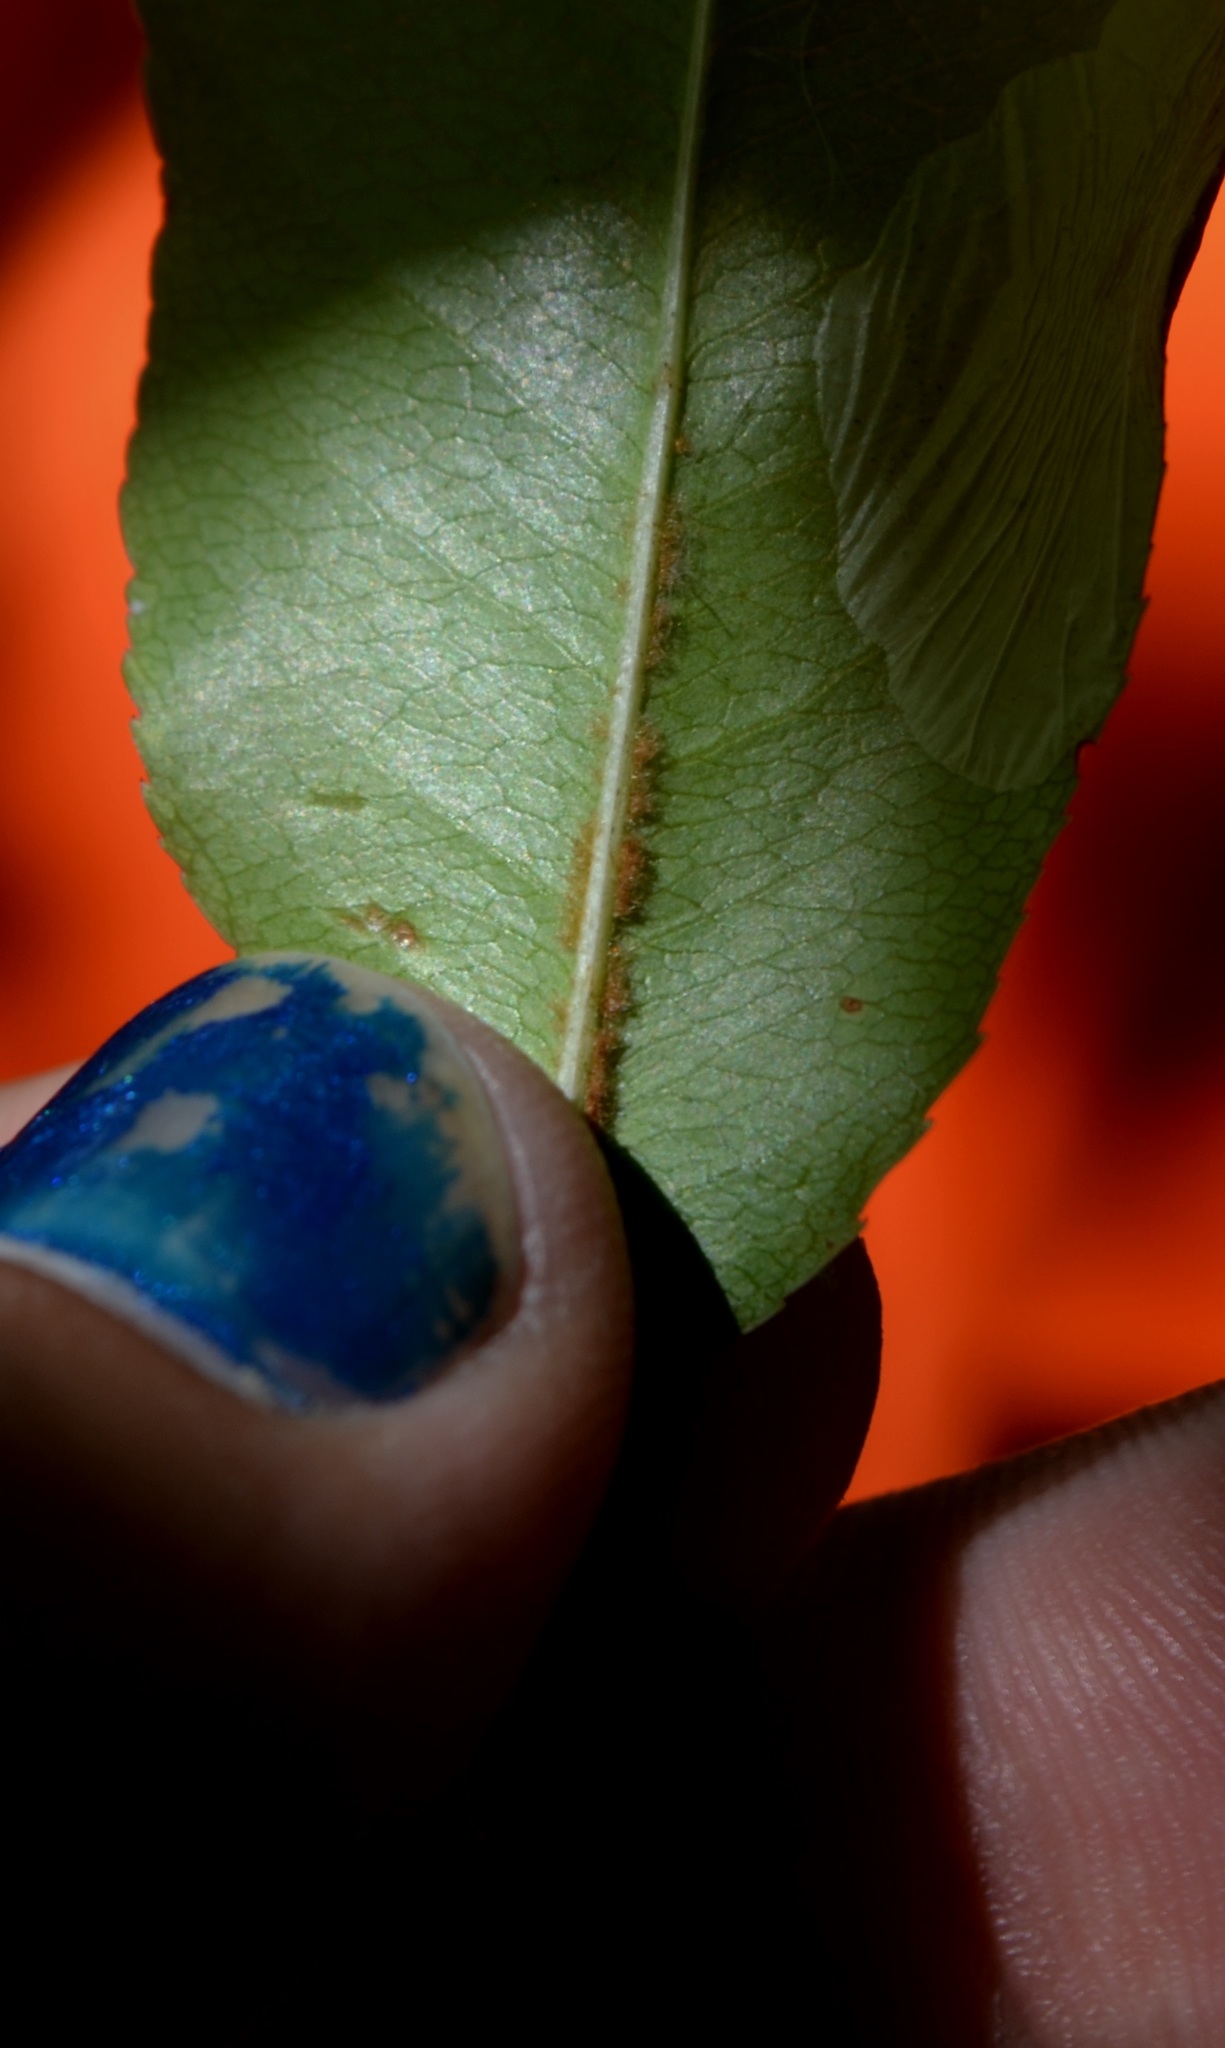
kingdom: Plantae
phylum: Tracheophyta
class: Magnoliopsida
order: Rosales
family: Rosaceae
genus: Prunus
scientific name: Prunus serotina
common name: Black cherry
